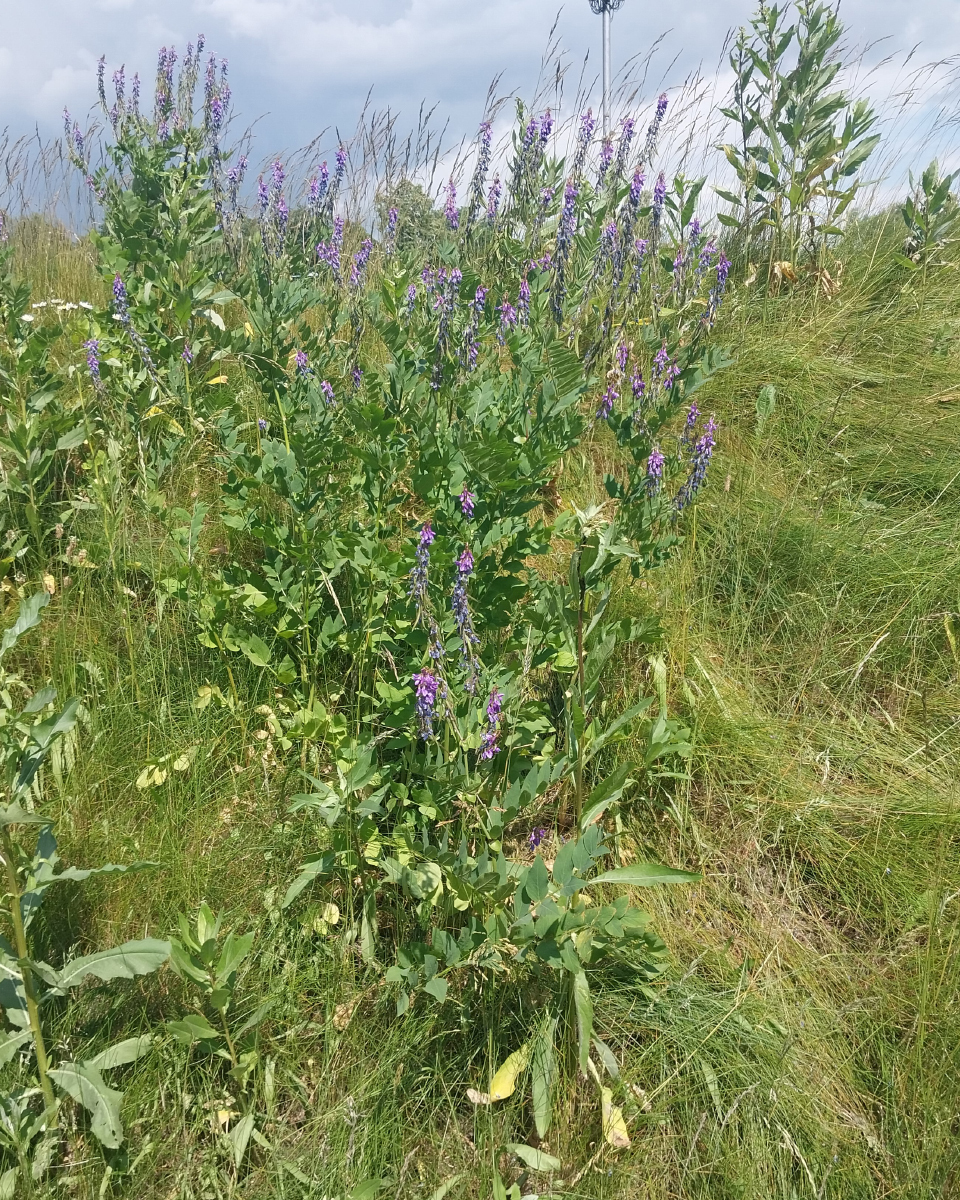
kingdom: Plantae
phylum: Tracheophyta
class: Magnoliopsida
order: Fabales
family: Fabaceae
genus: Galega
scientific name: Galega orientalis
